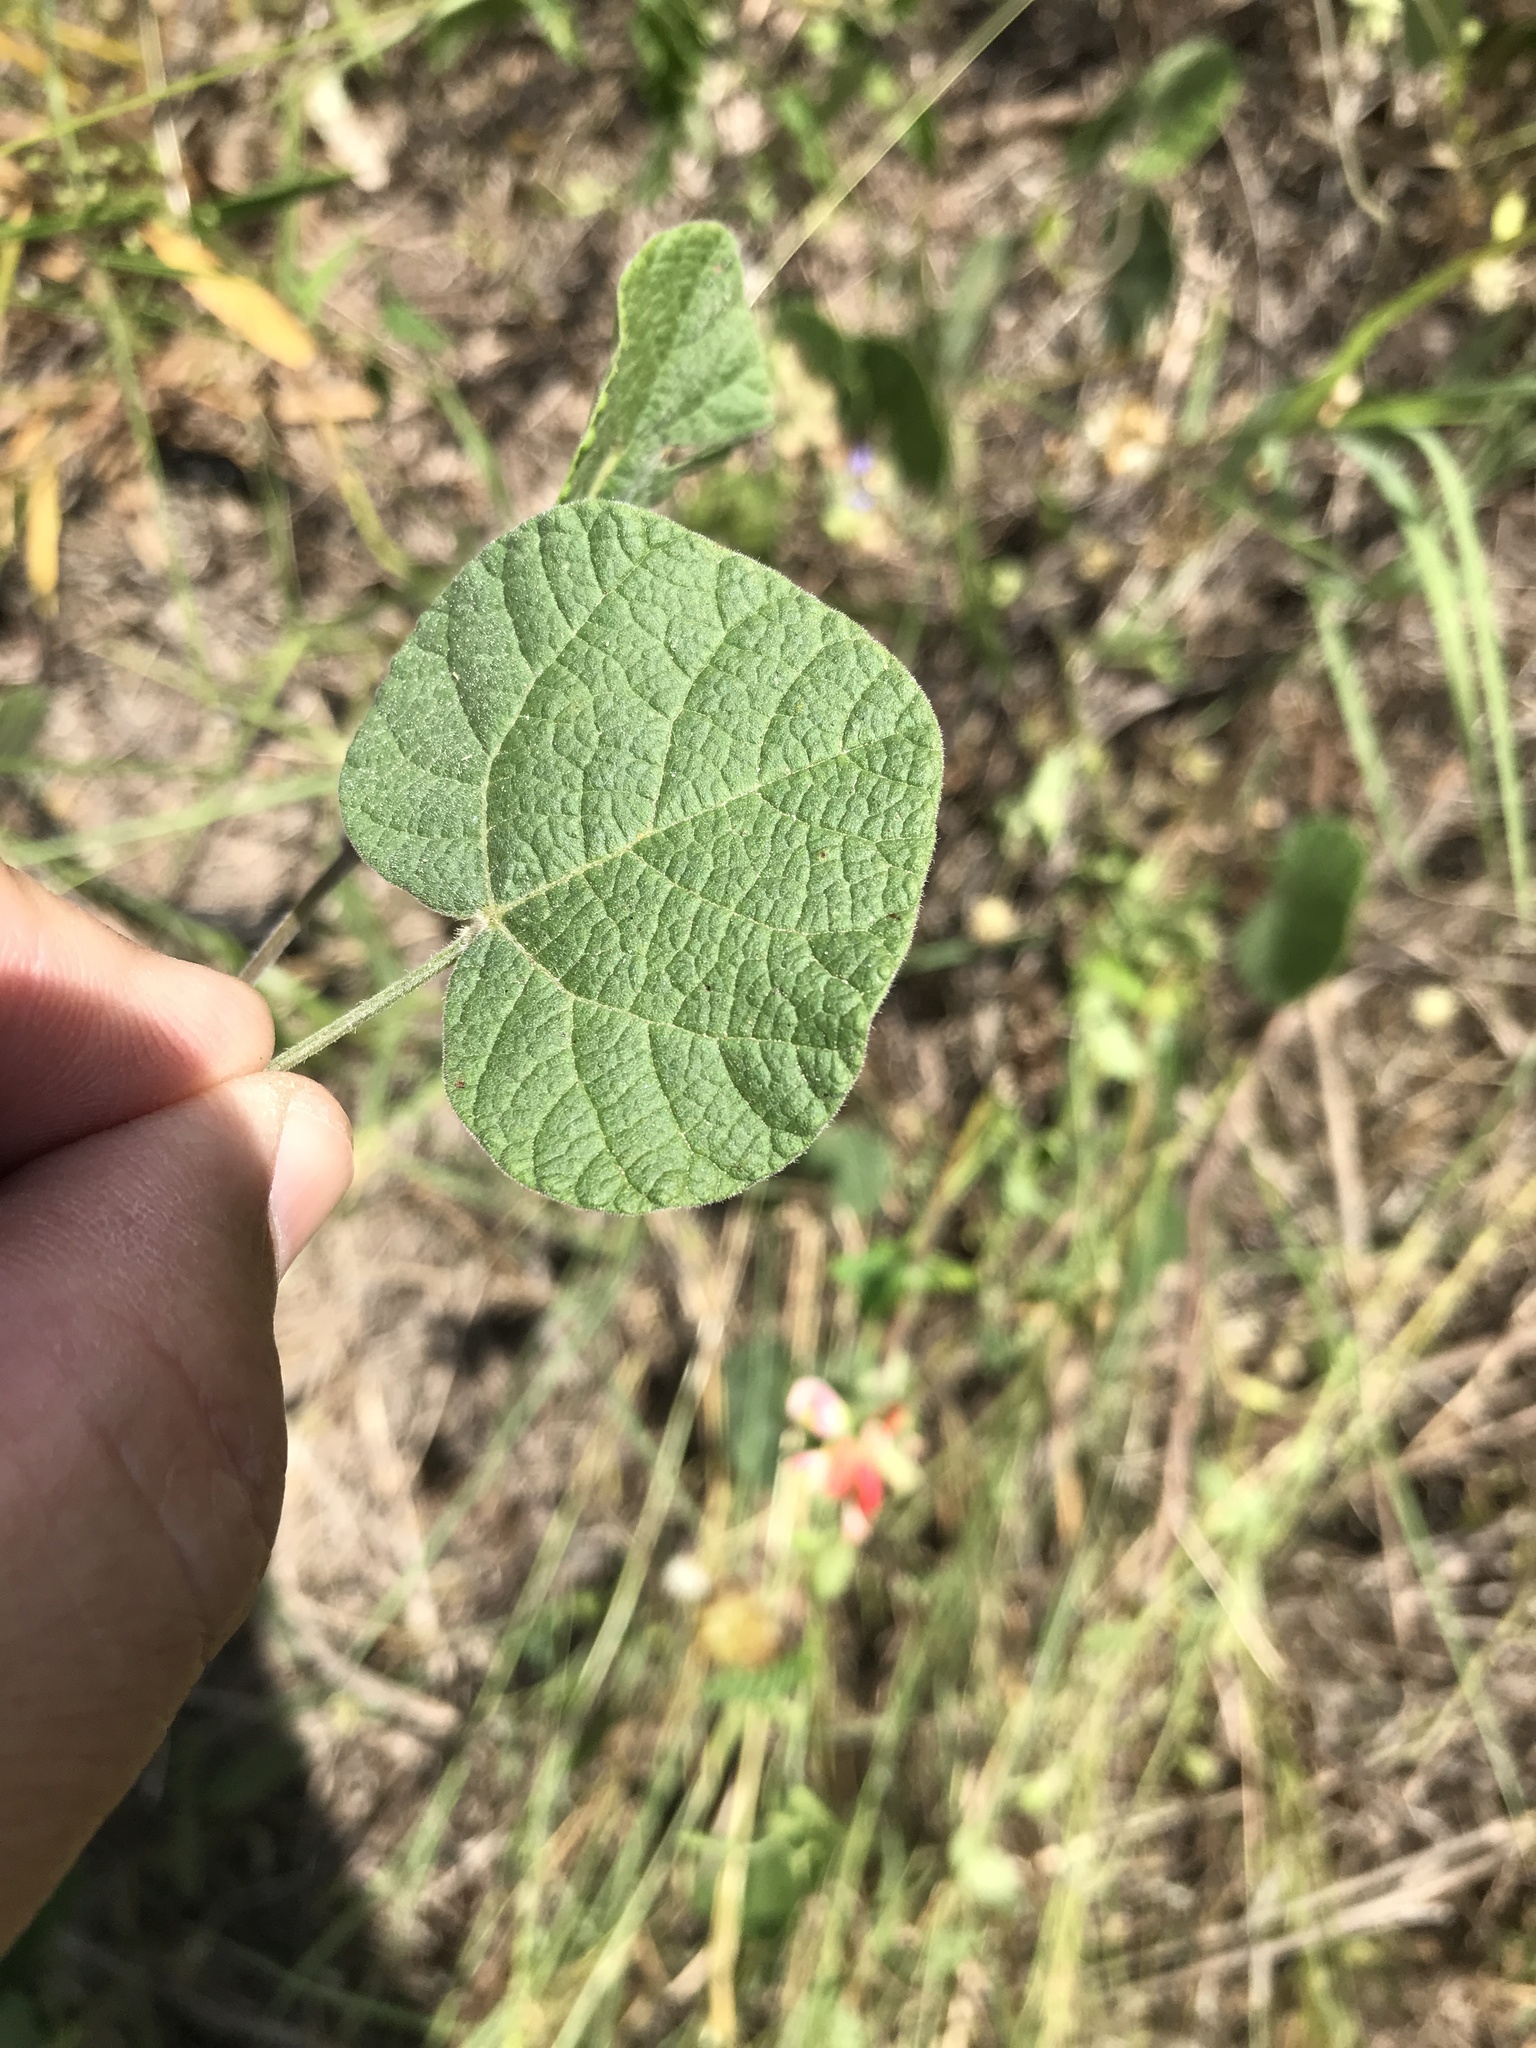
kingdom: Plantae
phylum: Tracheophyta
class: Magnoliopsida
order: Fabales
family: Fabaceae
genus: Rhynchosia
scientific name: Rhynchosia americana
